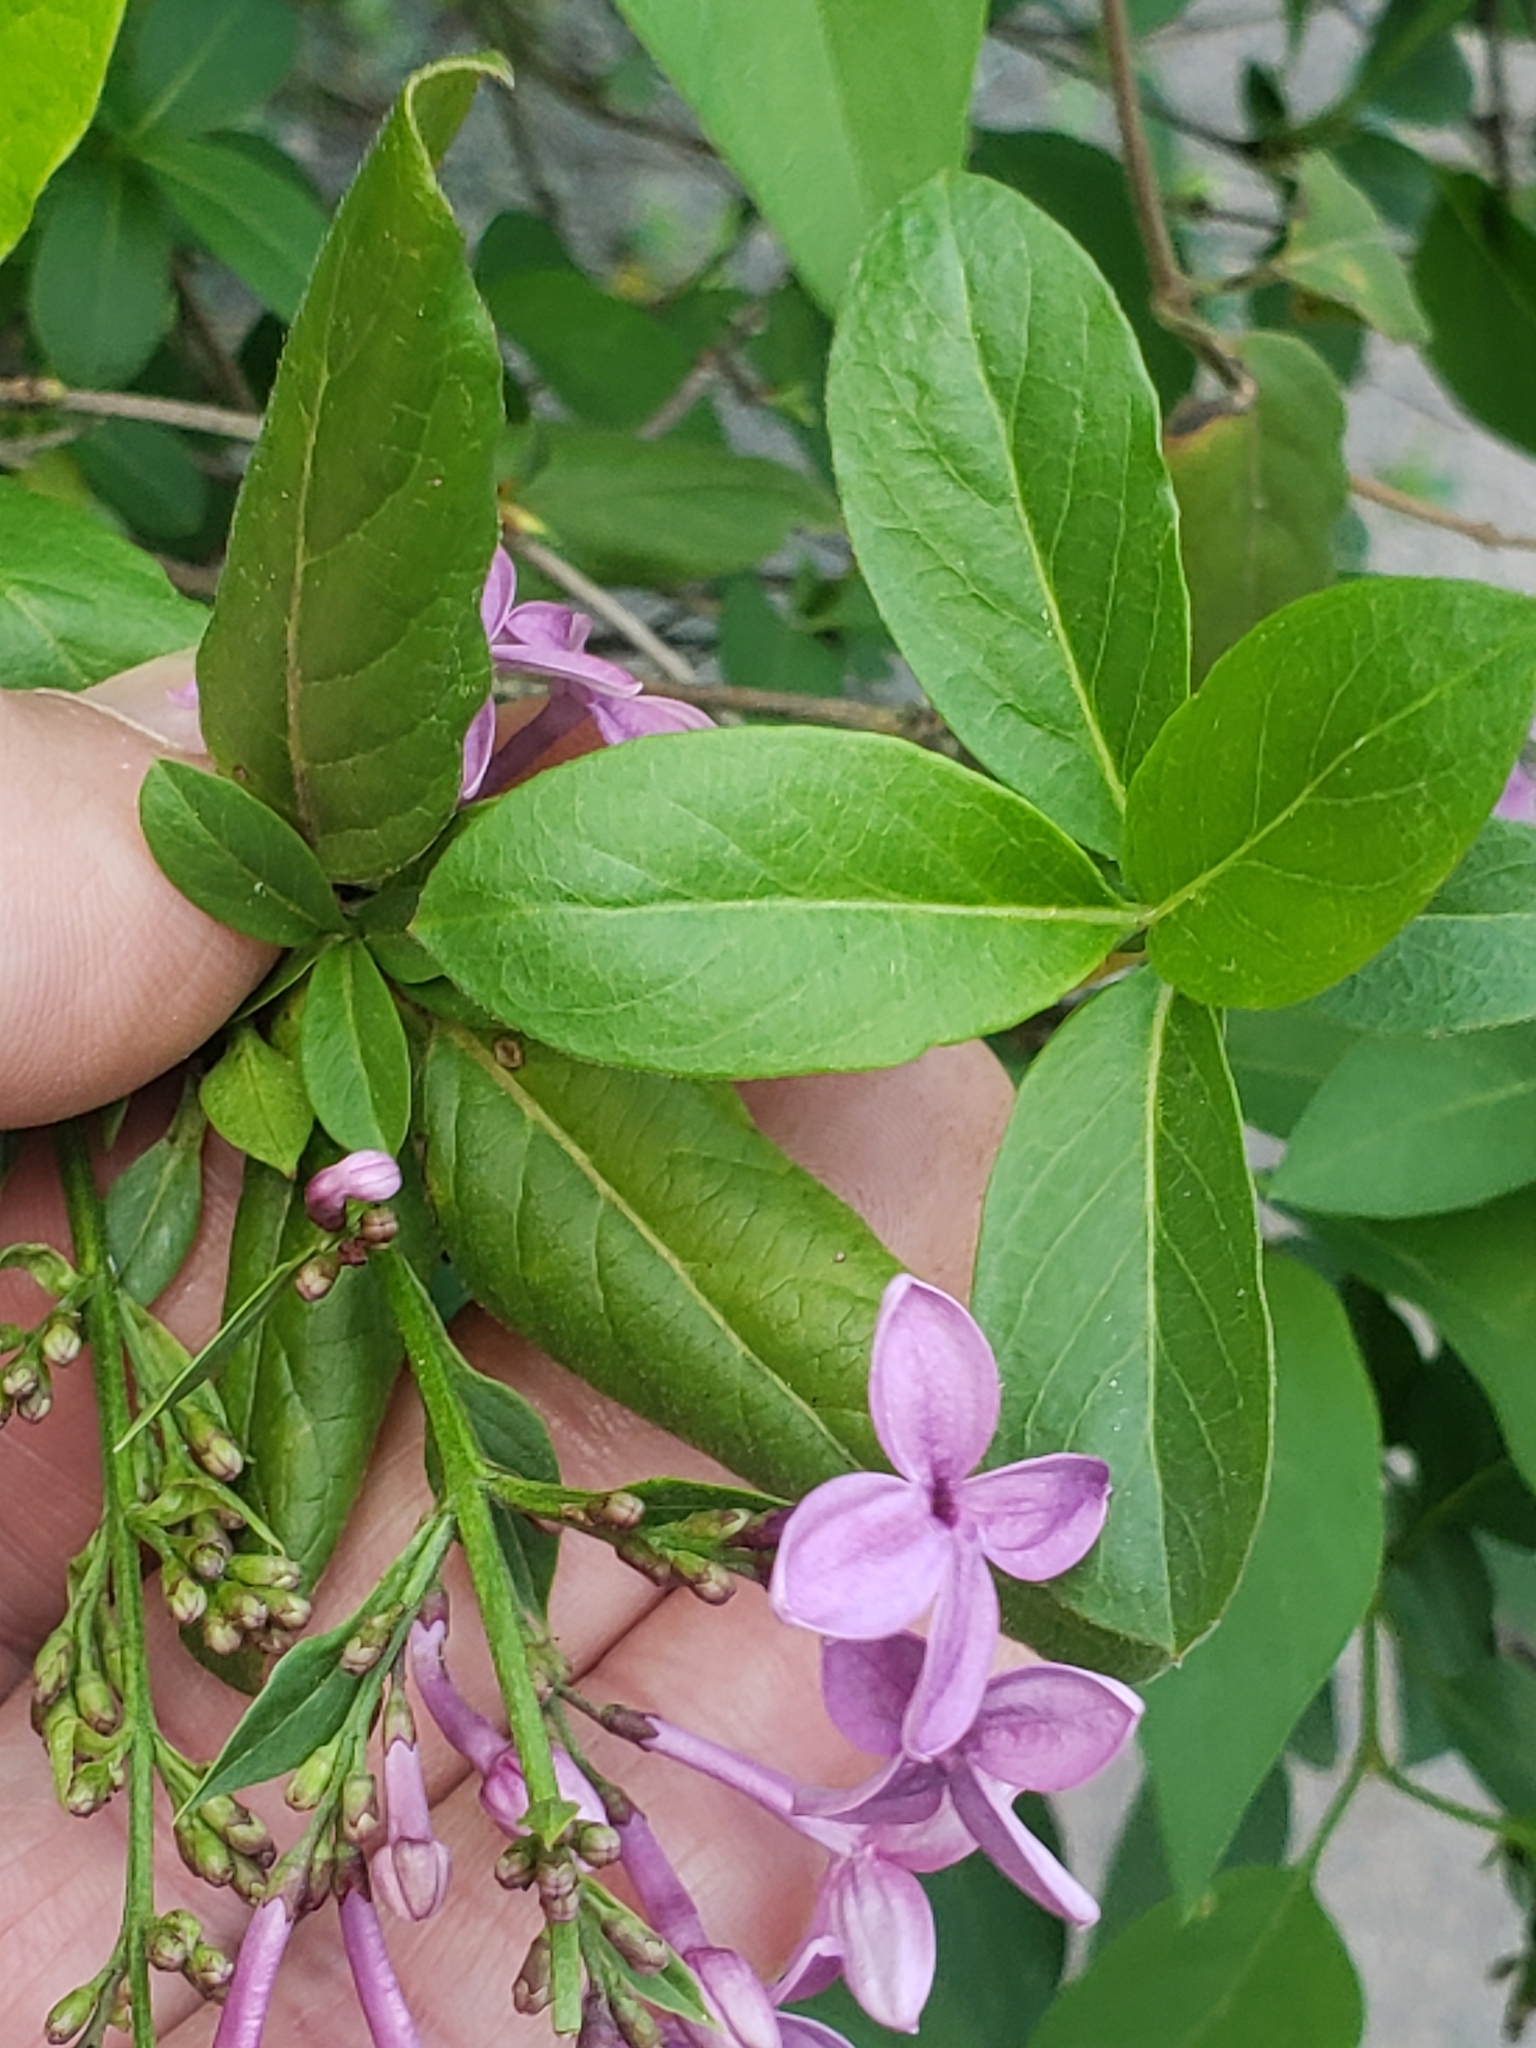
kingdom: Plantae
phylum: Tracheophyta
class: Magnoliopsida
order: Lamiales
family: Oleaceae
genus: Syringa
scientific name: Syringa vulgaris
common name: Common lilac
